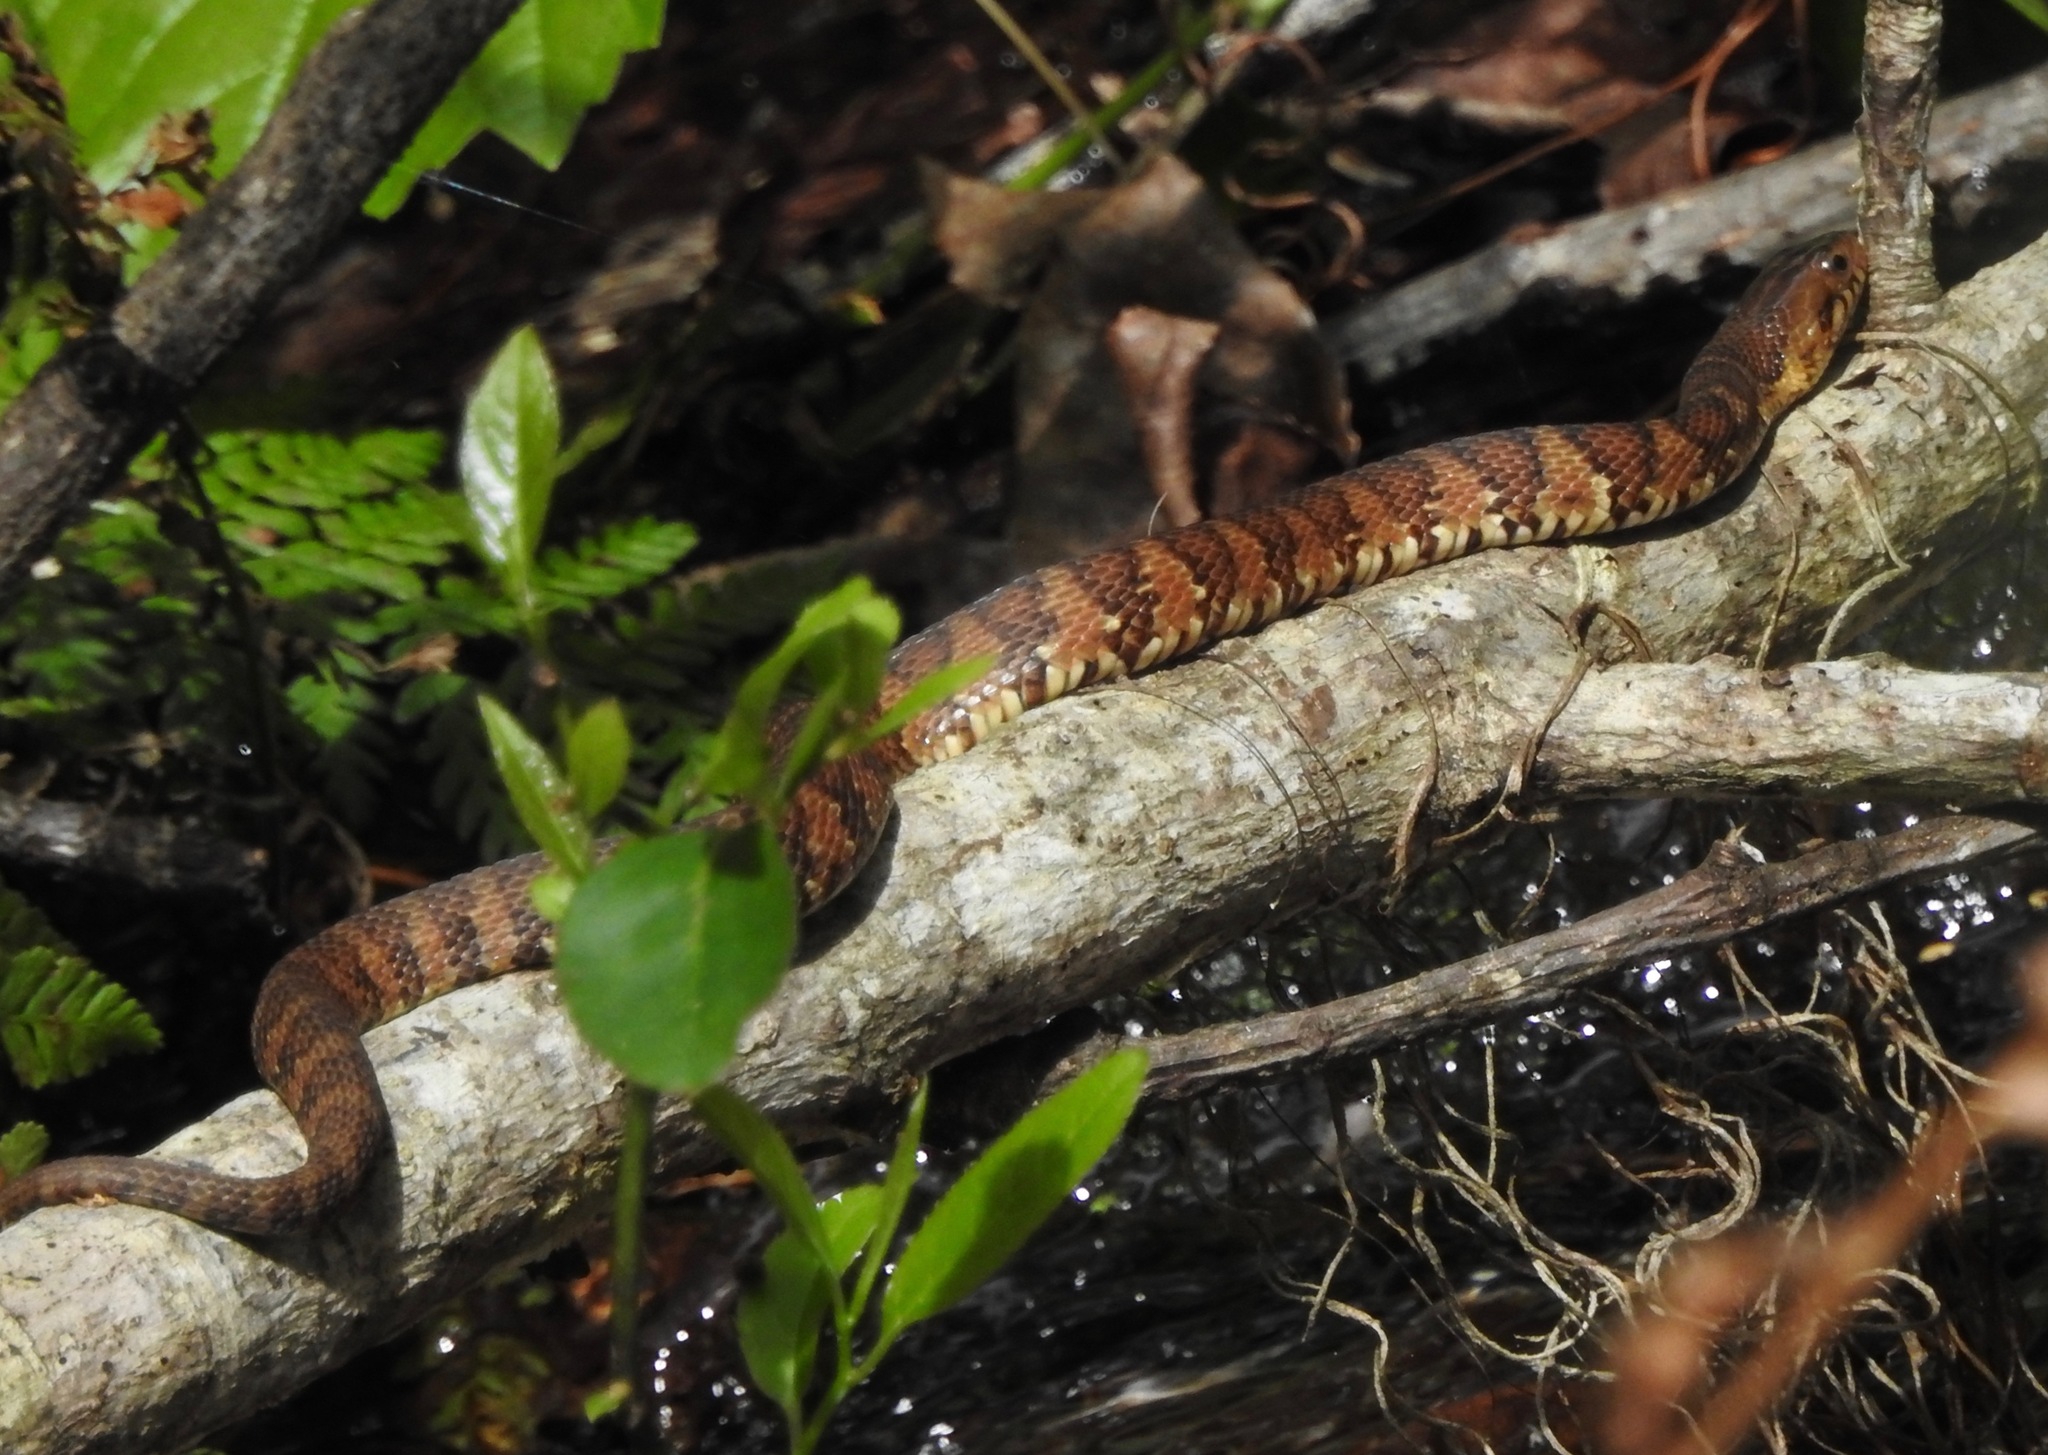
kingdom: Animalia
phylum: Chordata
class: Squamata
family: Colubridae
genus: Nerodia
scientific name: Nerodia fasciata
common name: Southern water snake
